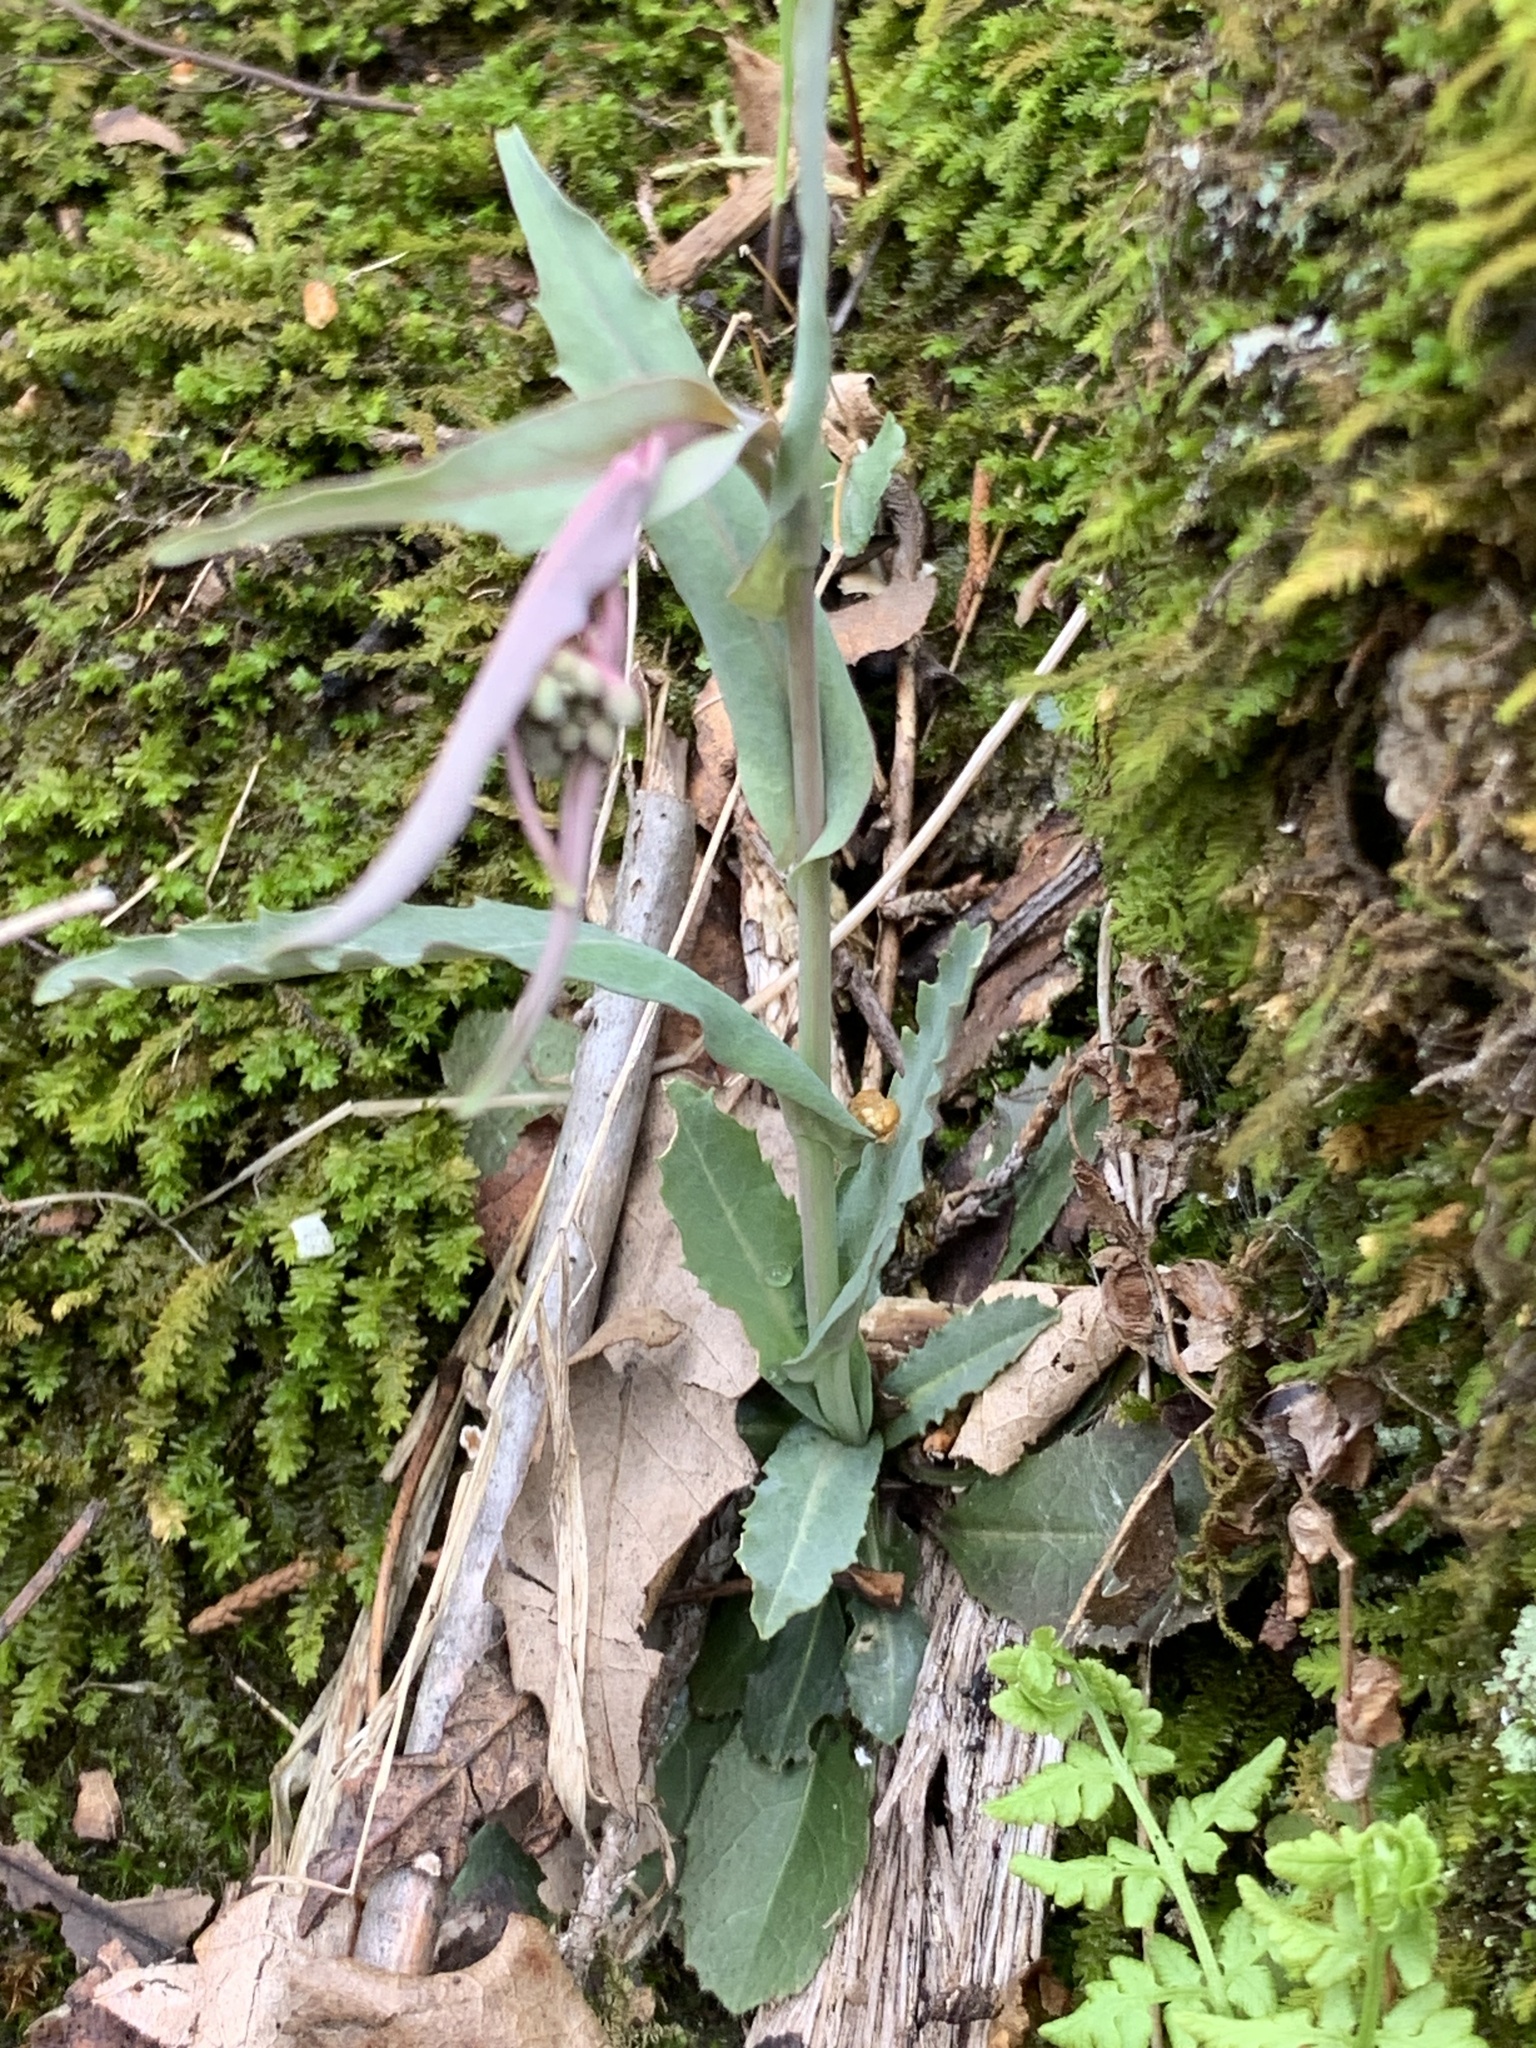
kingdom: Plantae
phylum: Tracheophyta
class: Magnoliopsida
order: Brassicales
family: Brassicaceae
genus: Borodinia
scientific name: Borodinia laevigata
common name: Smooth rockcress
